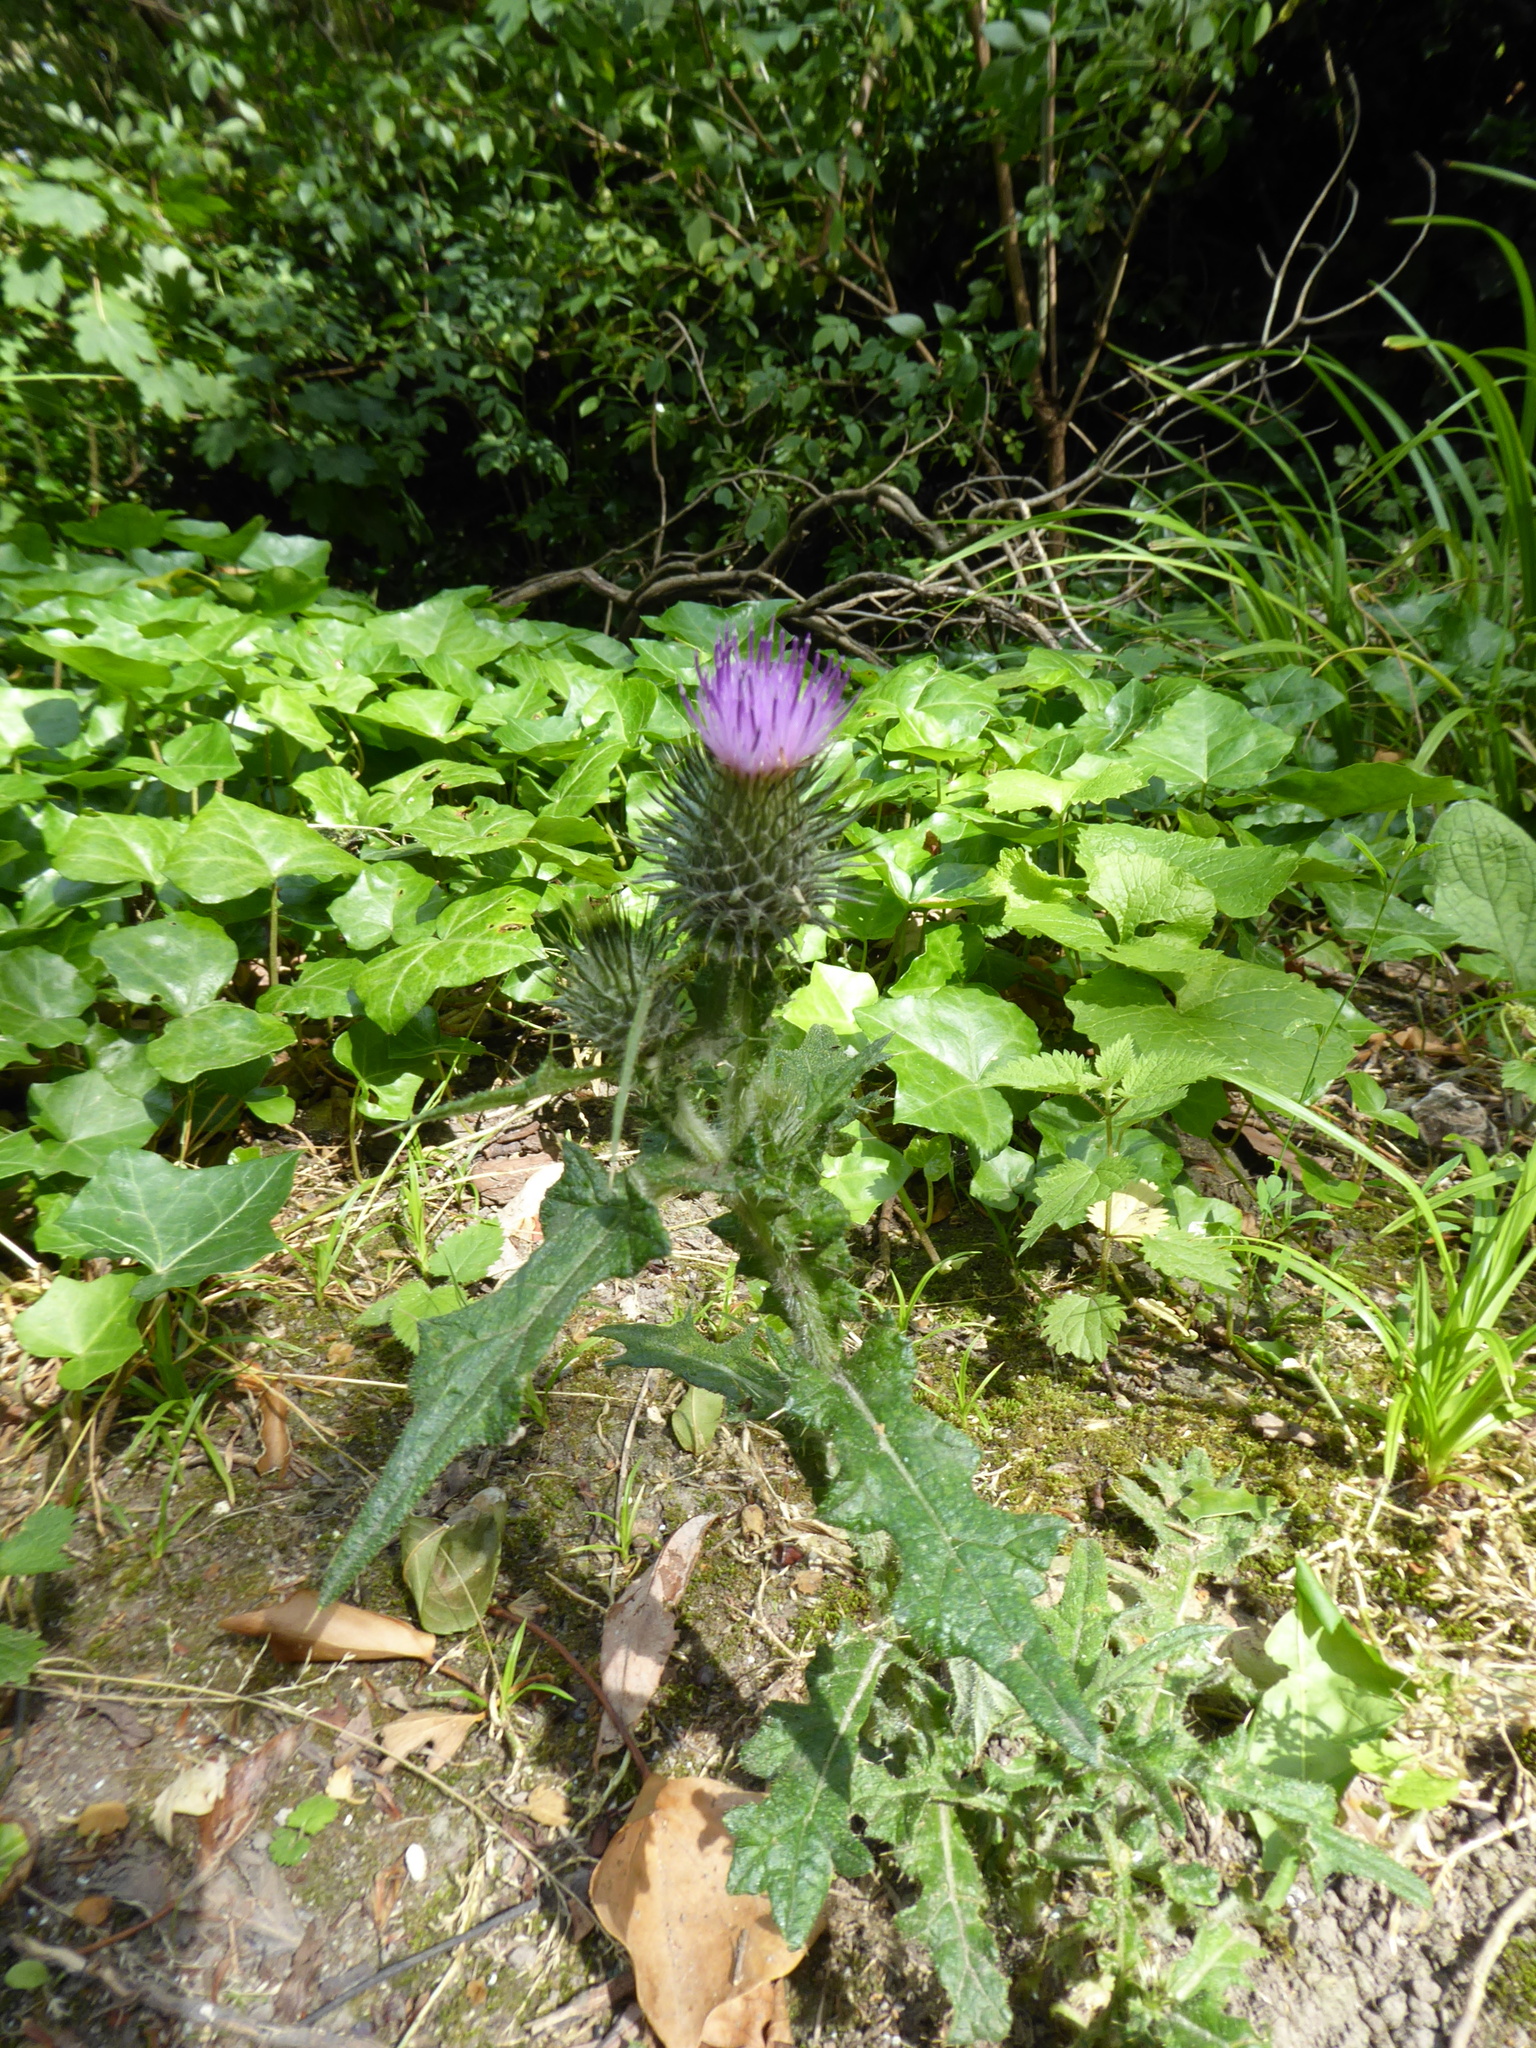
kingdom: Plantae
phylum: Tracheophyta
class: Magnoliopsida
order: Asterales
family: Asteraceae
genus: Cirsium
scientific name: Cirsium vulgare
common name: Bull thistle
